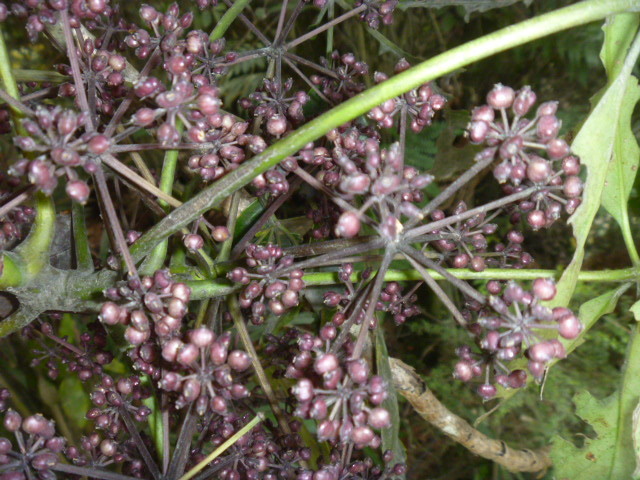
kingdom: Plantae
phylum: Tracheophyta
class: Magnoliopsida
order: Apiales
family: Araliaceae
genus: Neopanax
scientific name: Neopanax arboreus
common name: Five-fingers
